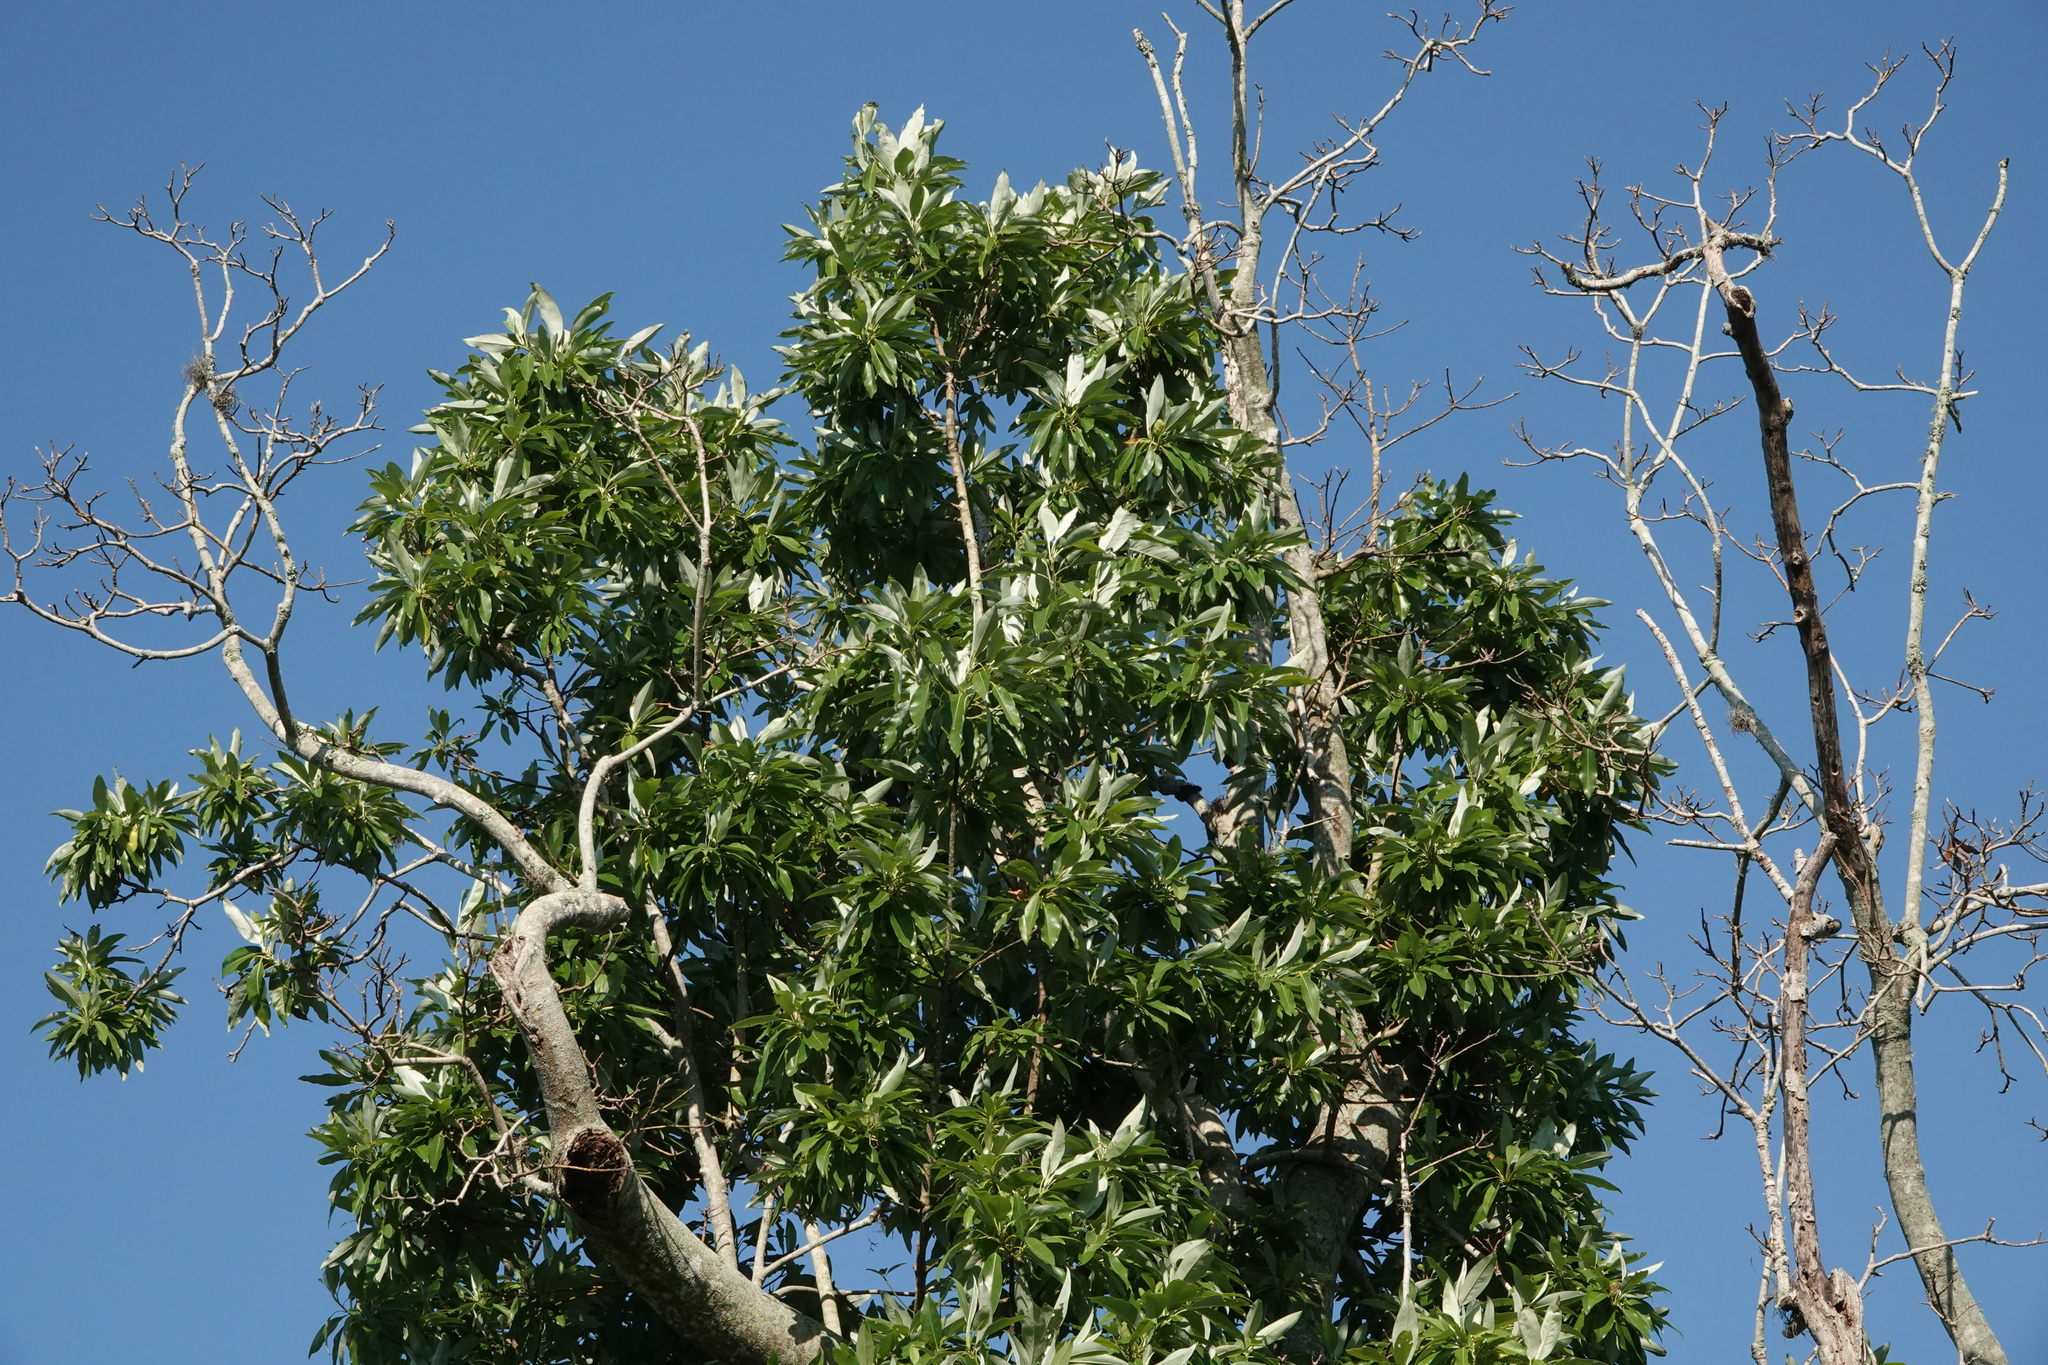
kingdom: Plantae
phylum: Tracheophyta
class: Magnoliopsida
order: Magnoliales
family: Magnoliaceae
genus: Magnolia
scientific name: Magnolia virginiana
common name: Swamp bay
